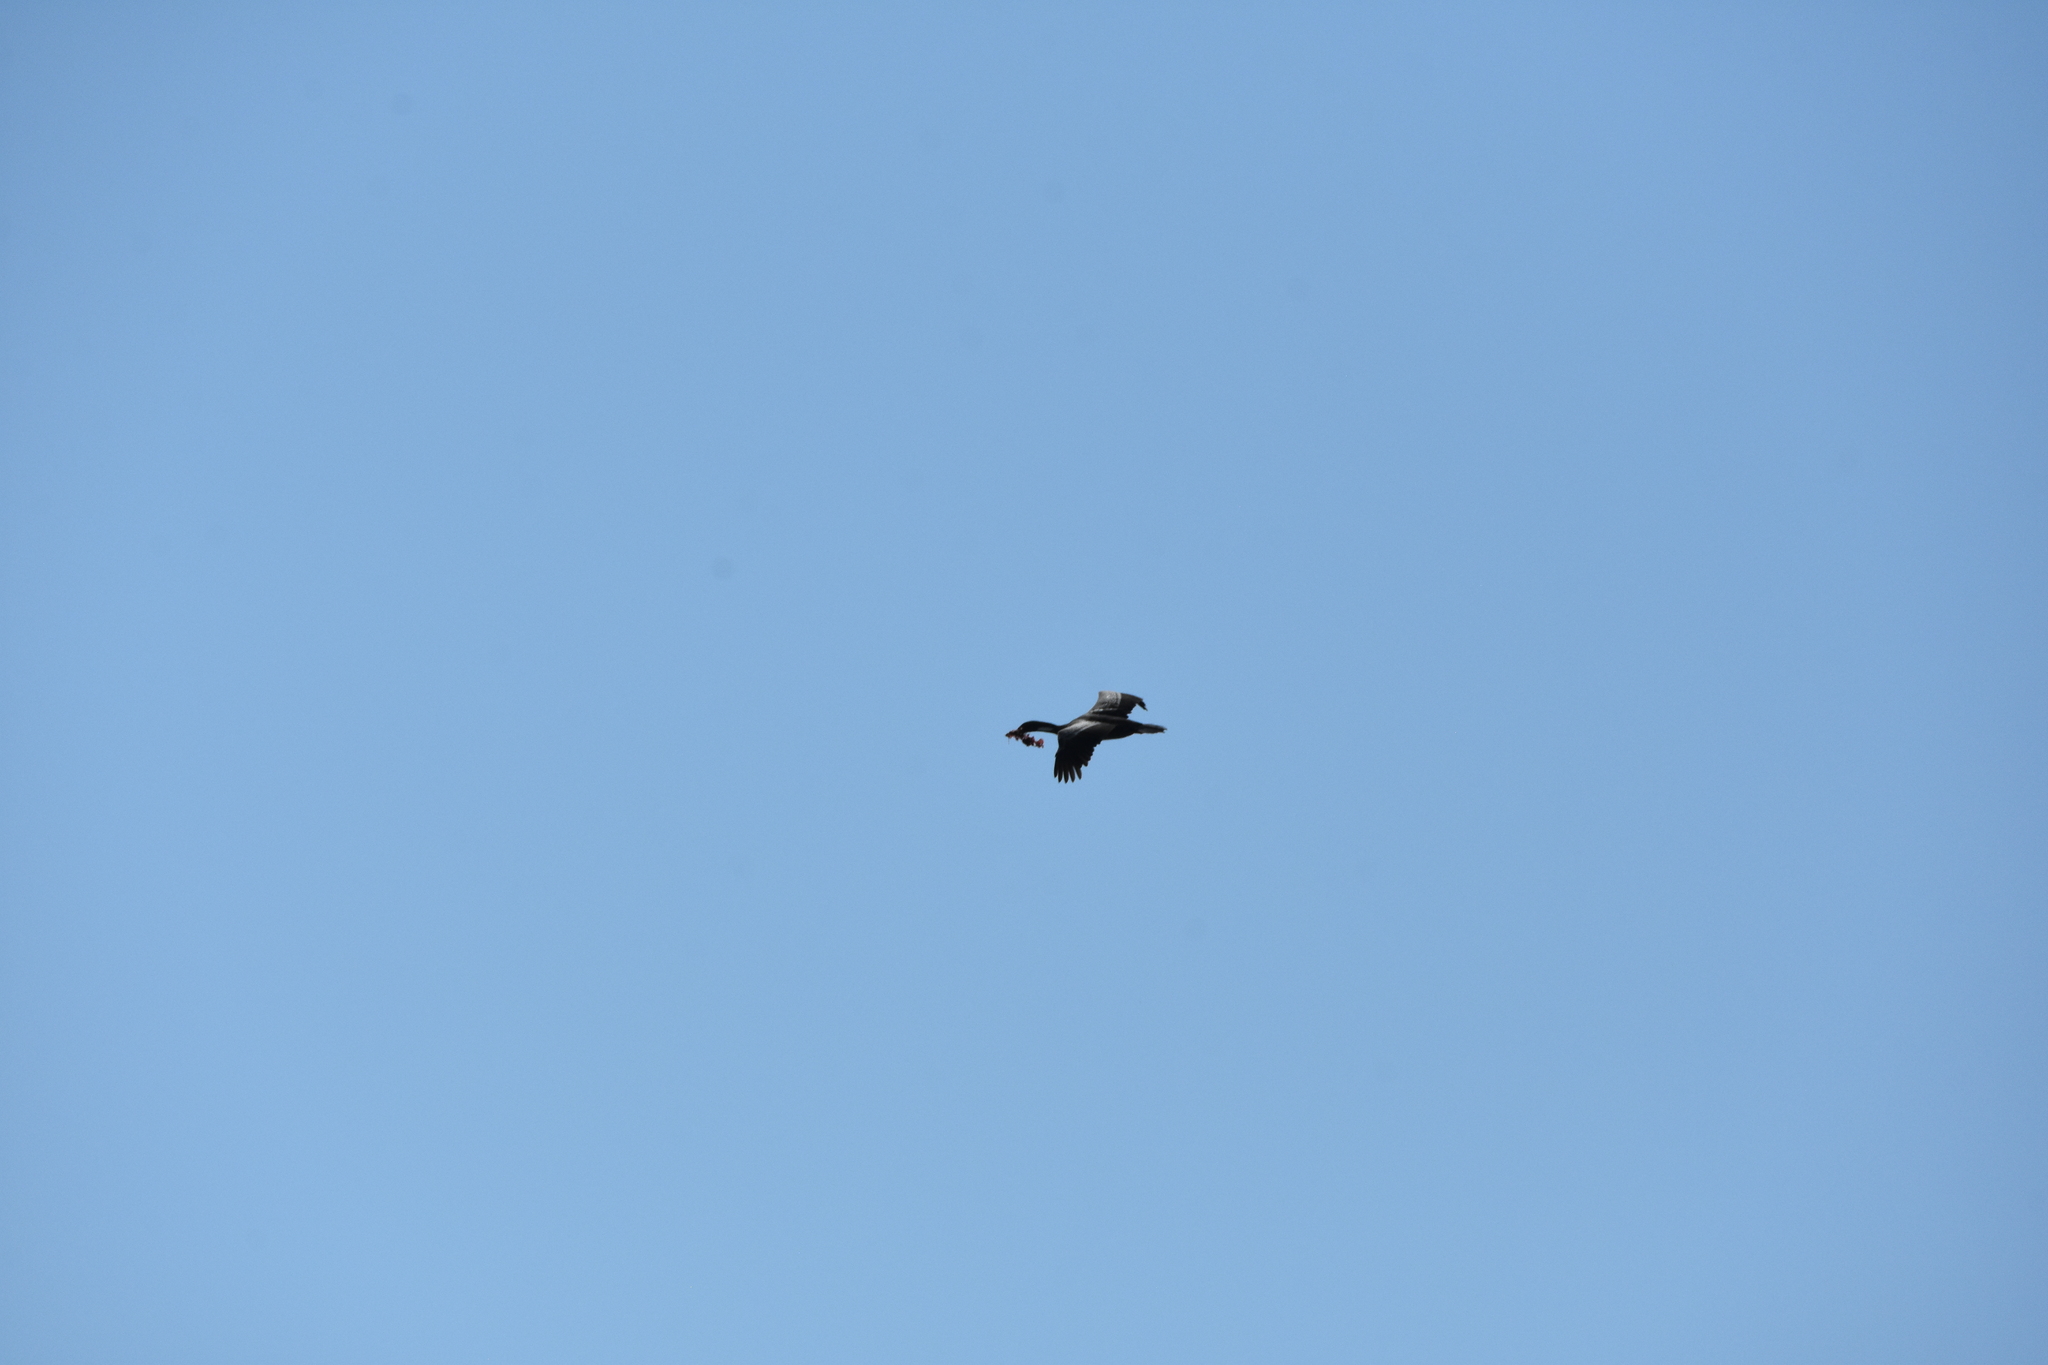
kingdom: Animalia
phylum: Chordata
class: Aves
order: Suliformes
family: Phalacrocoracidae
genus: Phalacrocorax
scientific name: Phalacrocorax gaimardi
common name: Red-legged cormorant
